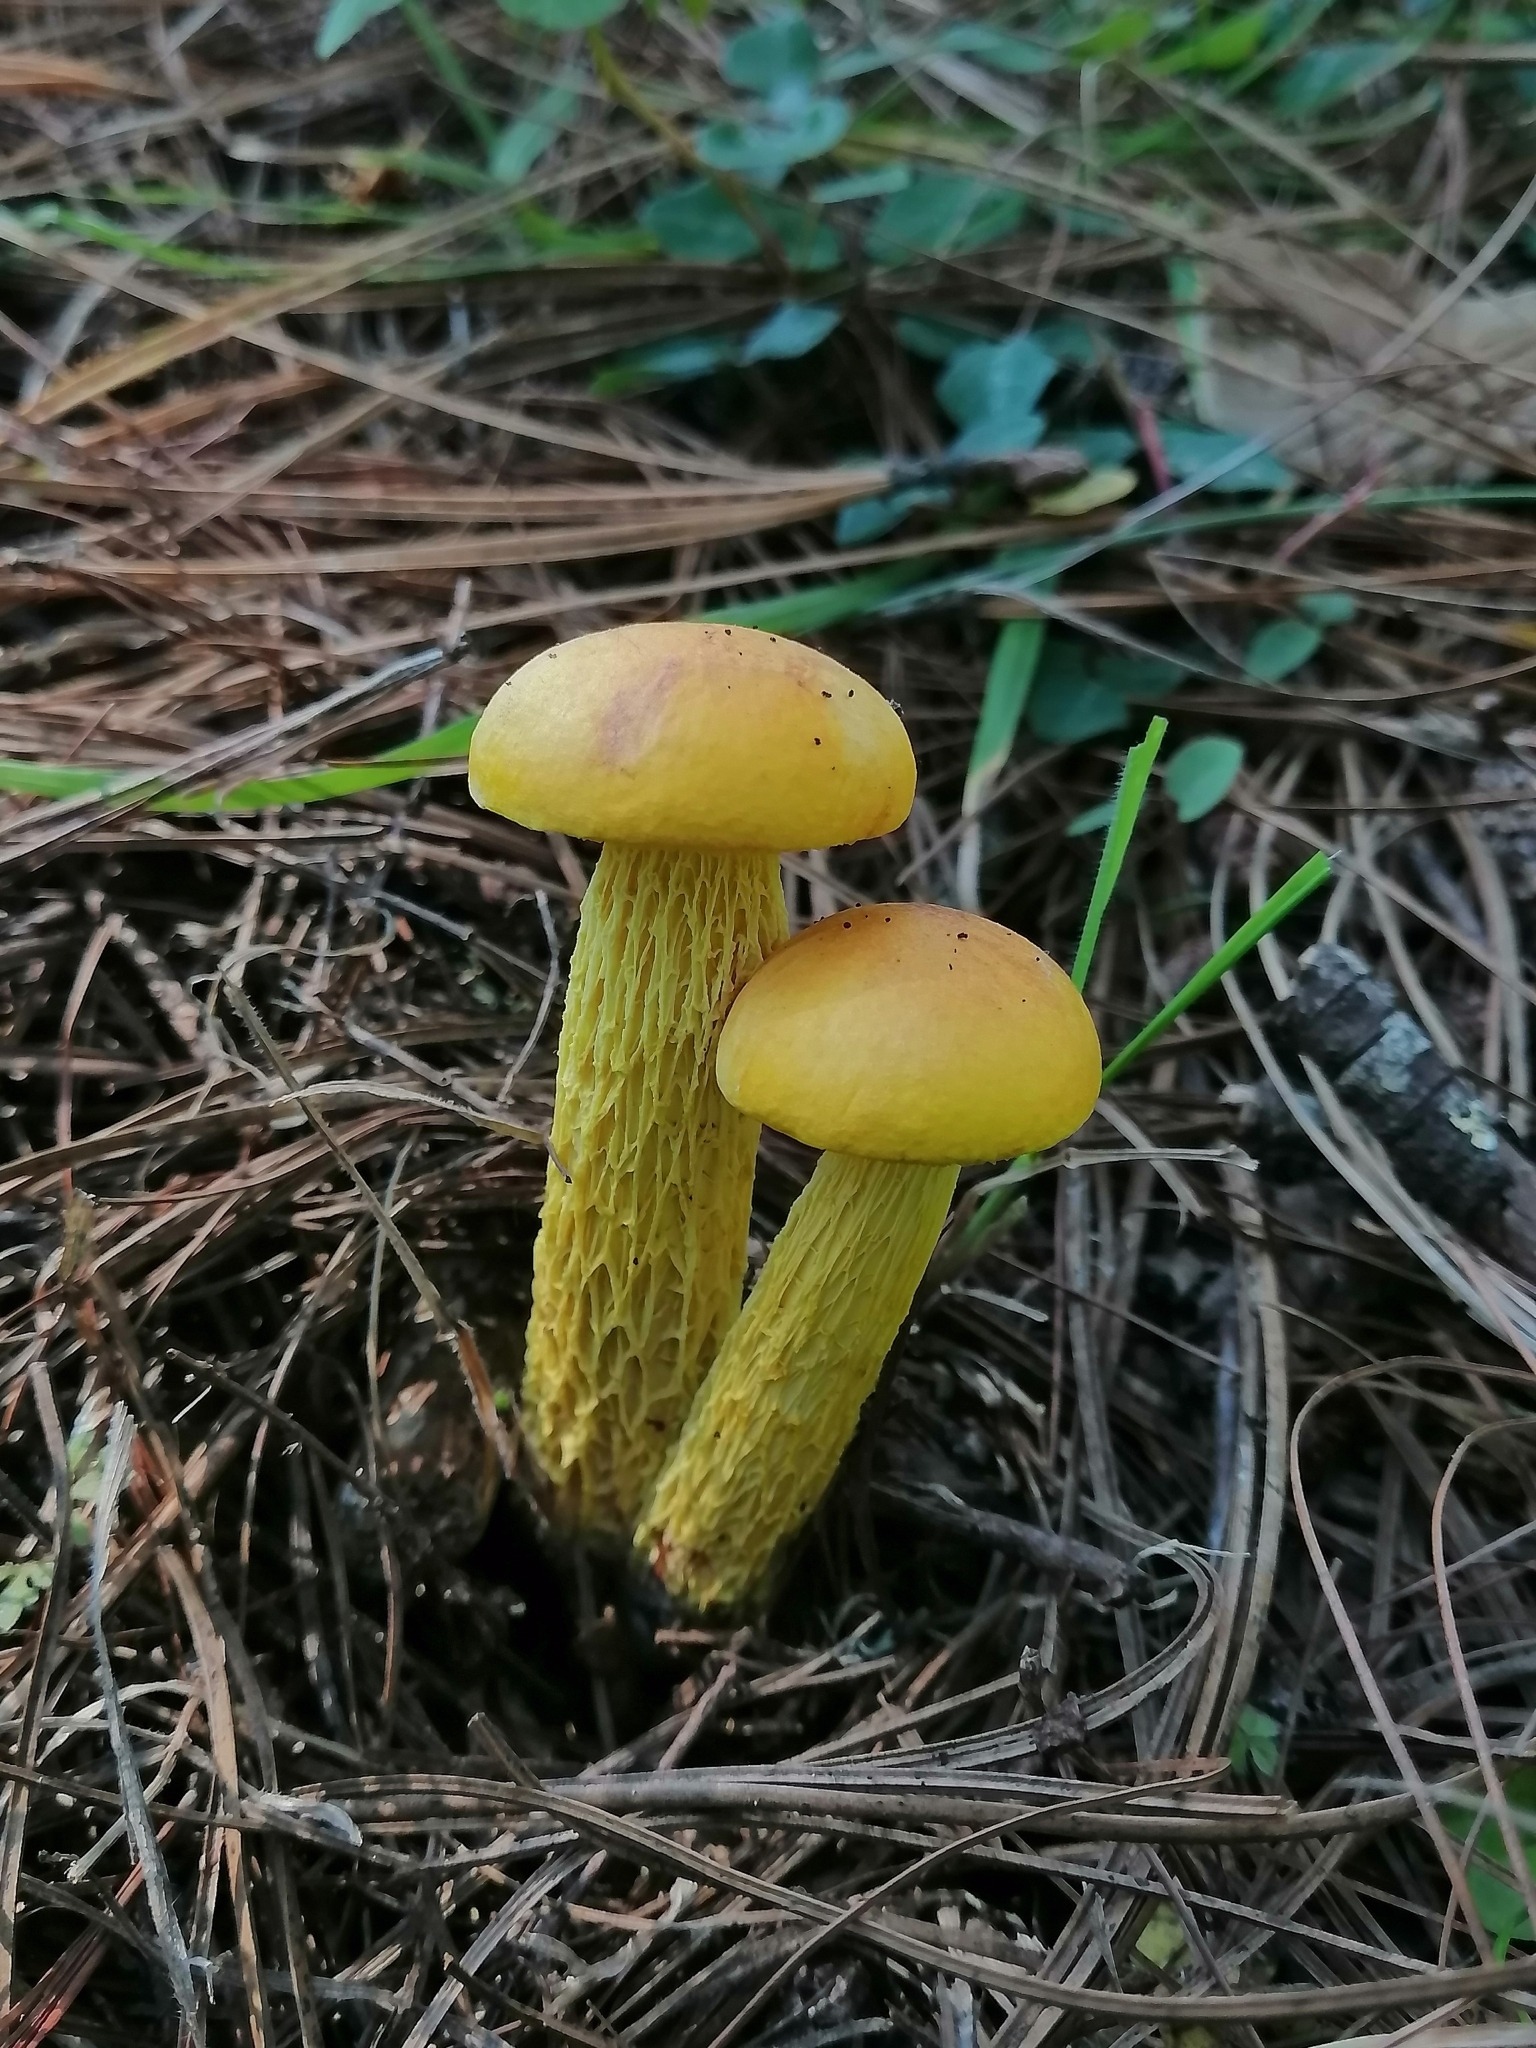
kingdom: Fungi
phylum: Basidiomycota
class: Agaricomycetes
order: Boletales
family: Boletaceae
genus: Aureoboletus
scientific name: Aureoboletus betula
